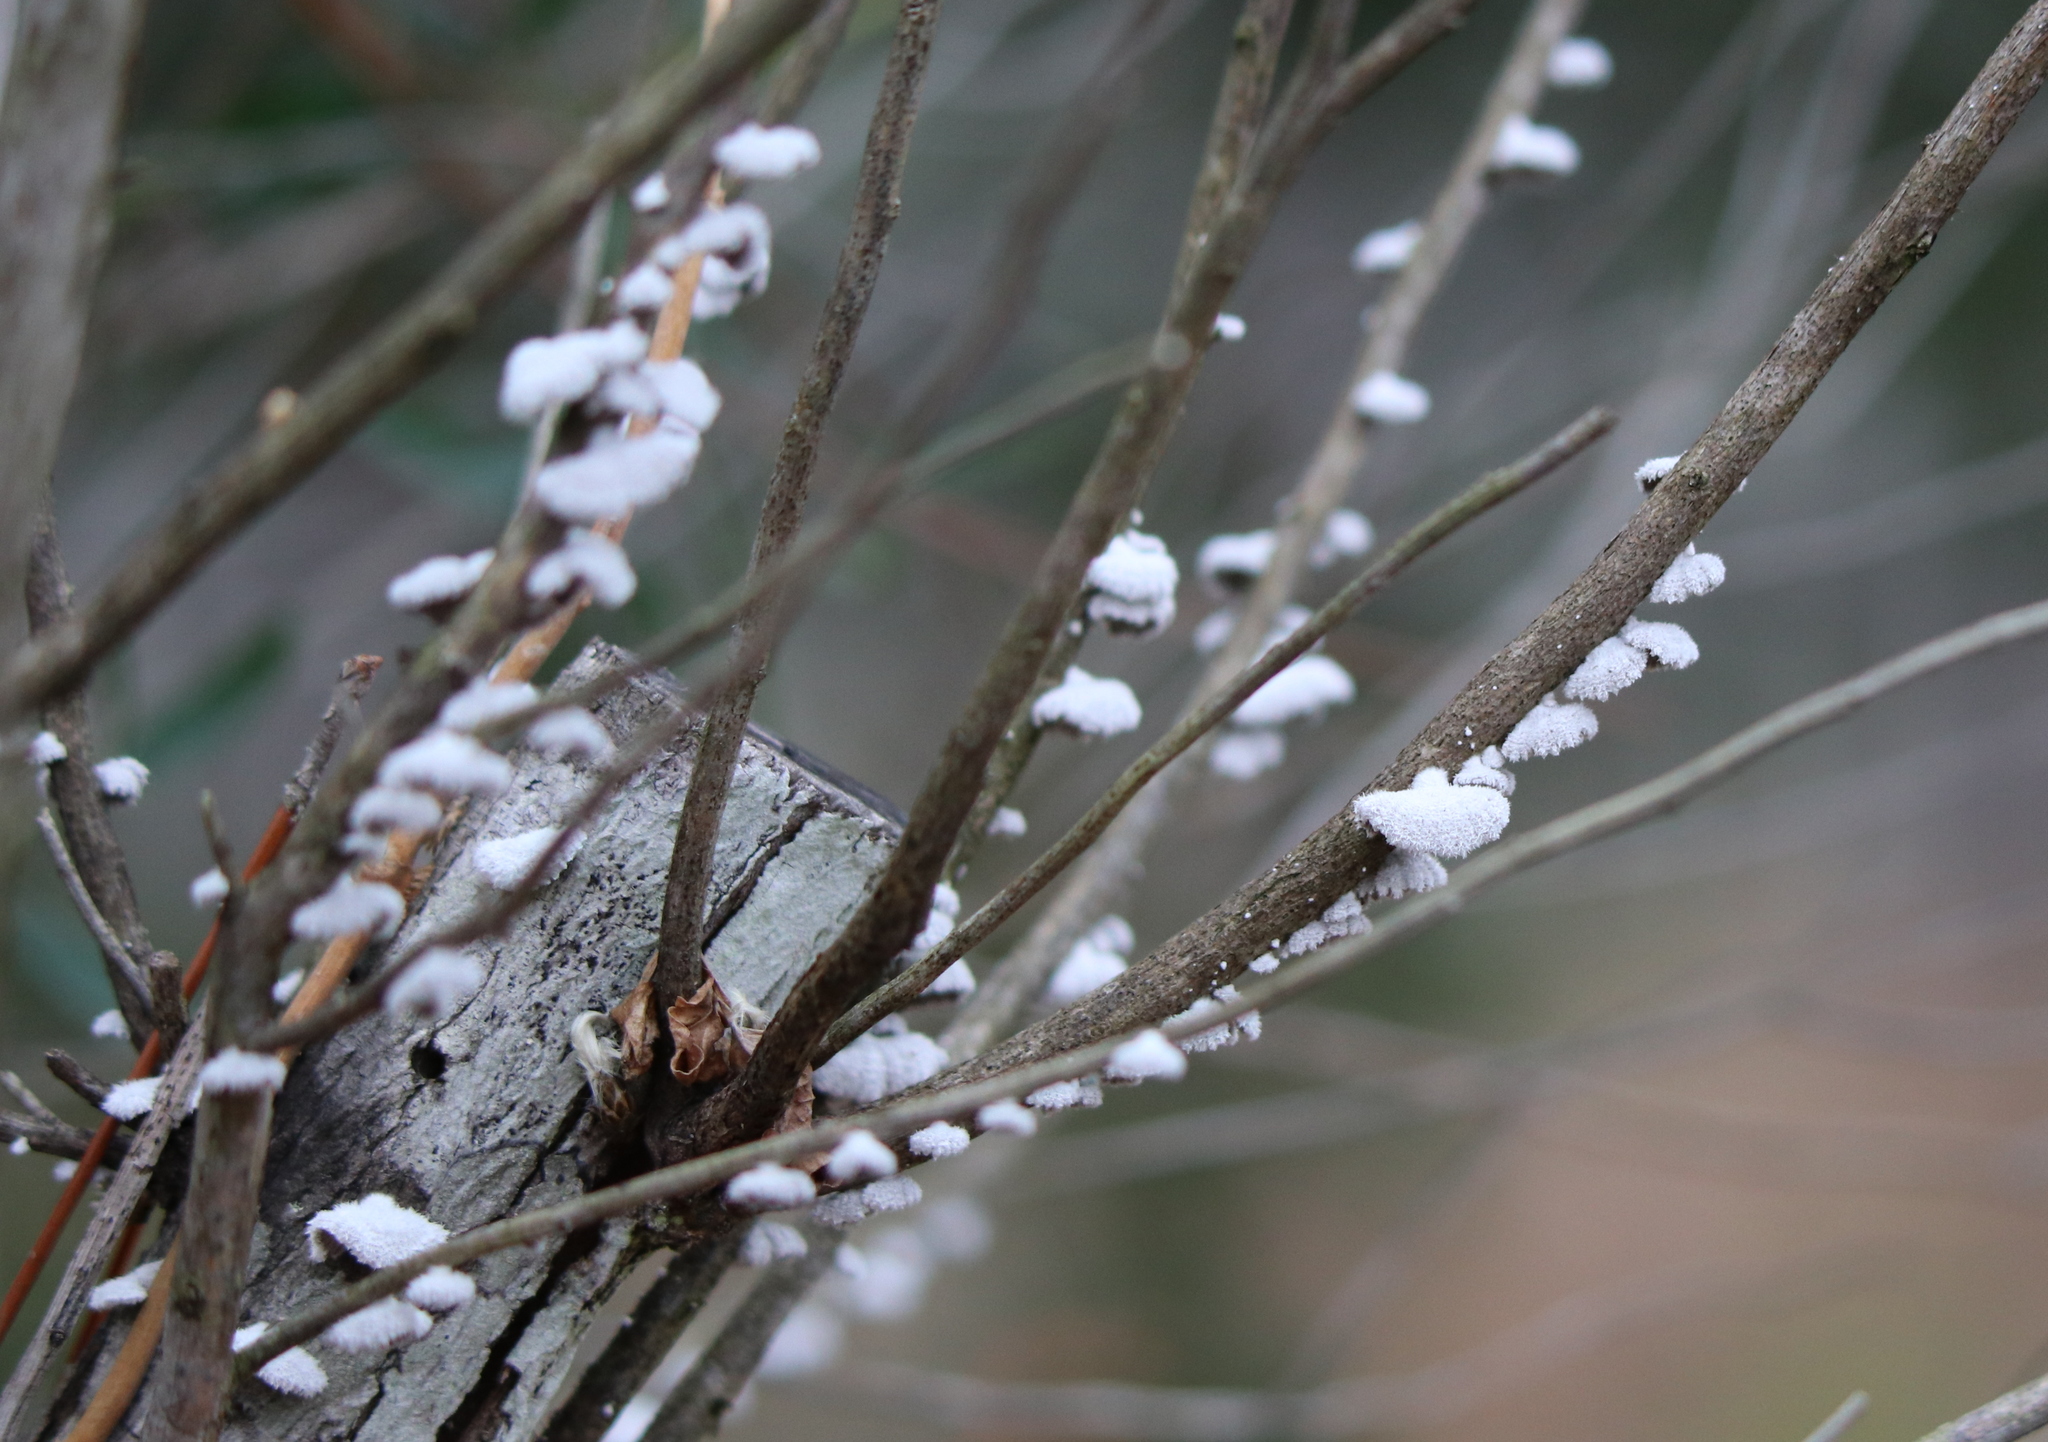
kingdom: Fungi
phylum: Basidiomycota
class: Agaricomycetes
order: Agaricales
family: Schizophyllaceae
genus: Schizophyllum
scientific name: Schizophyllum commune
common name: Common porecrust
